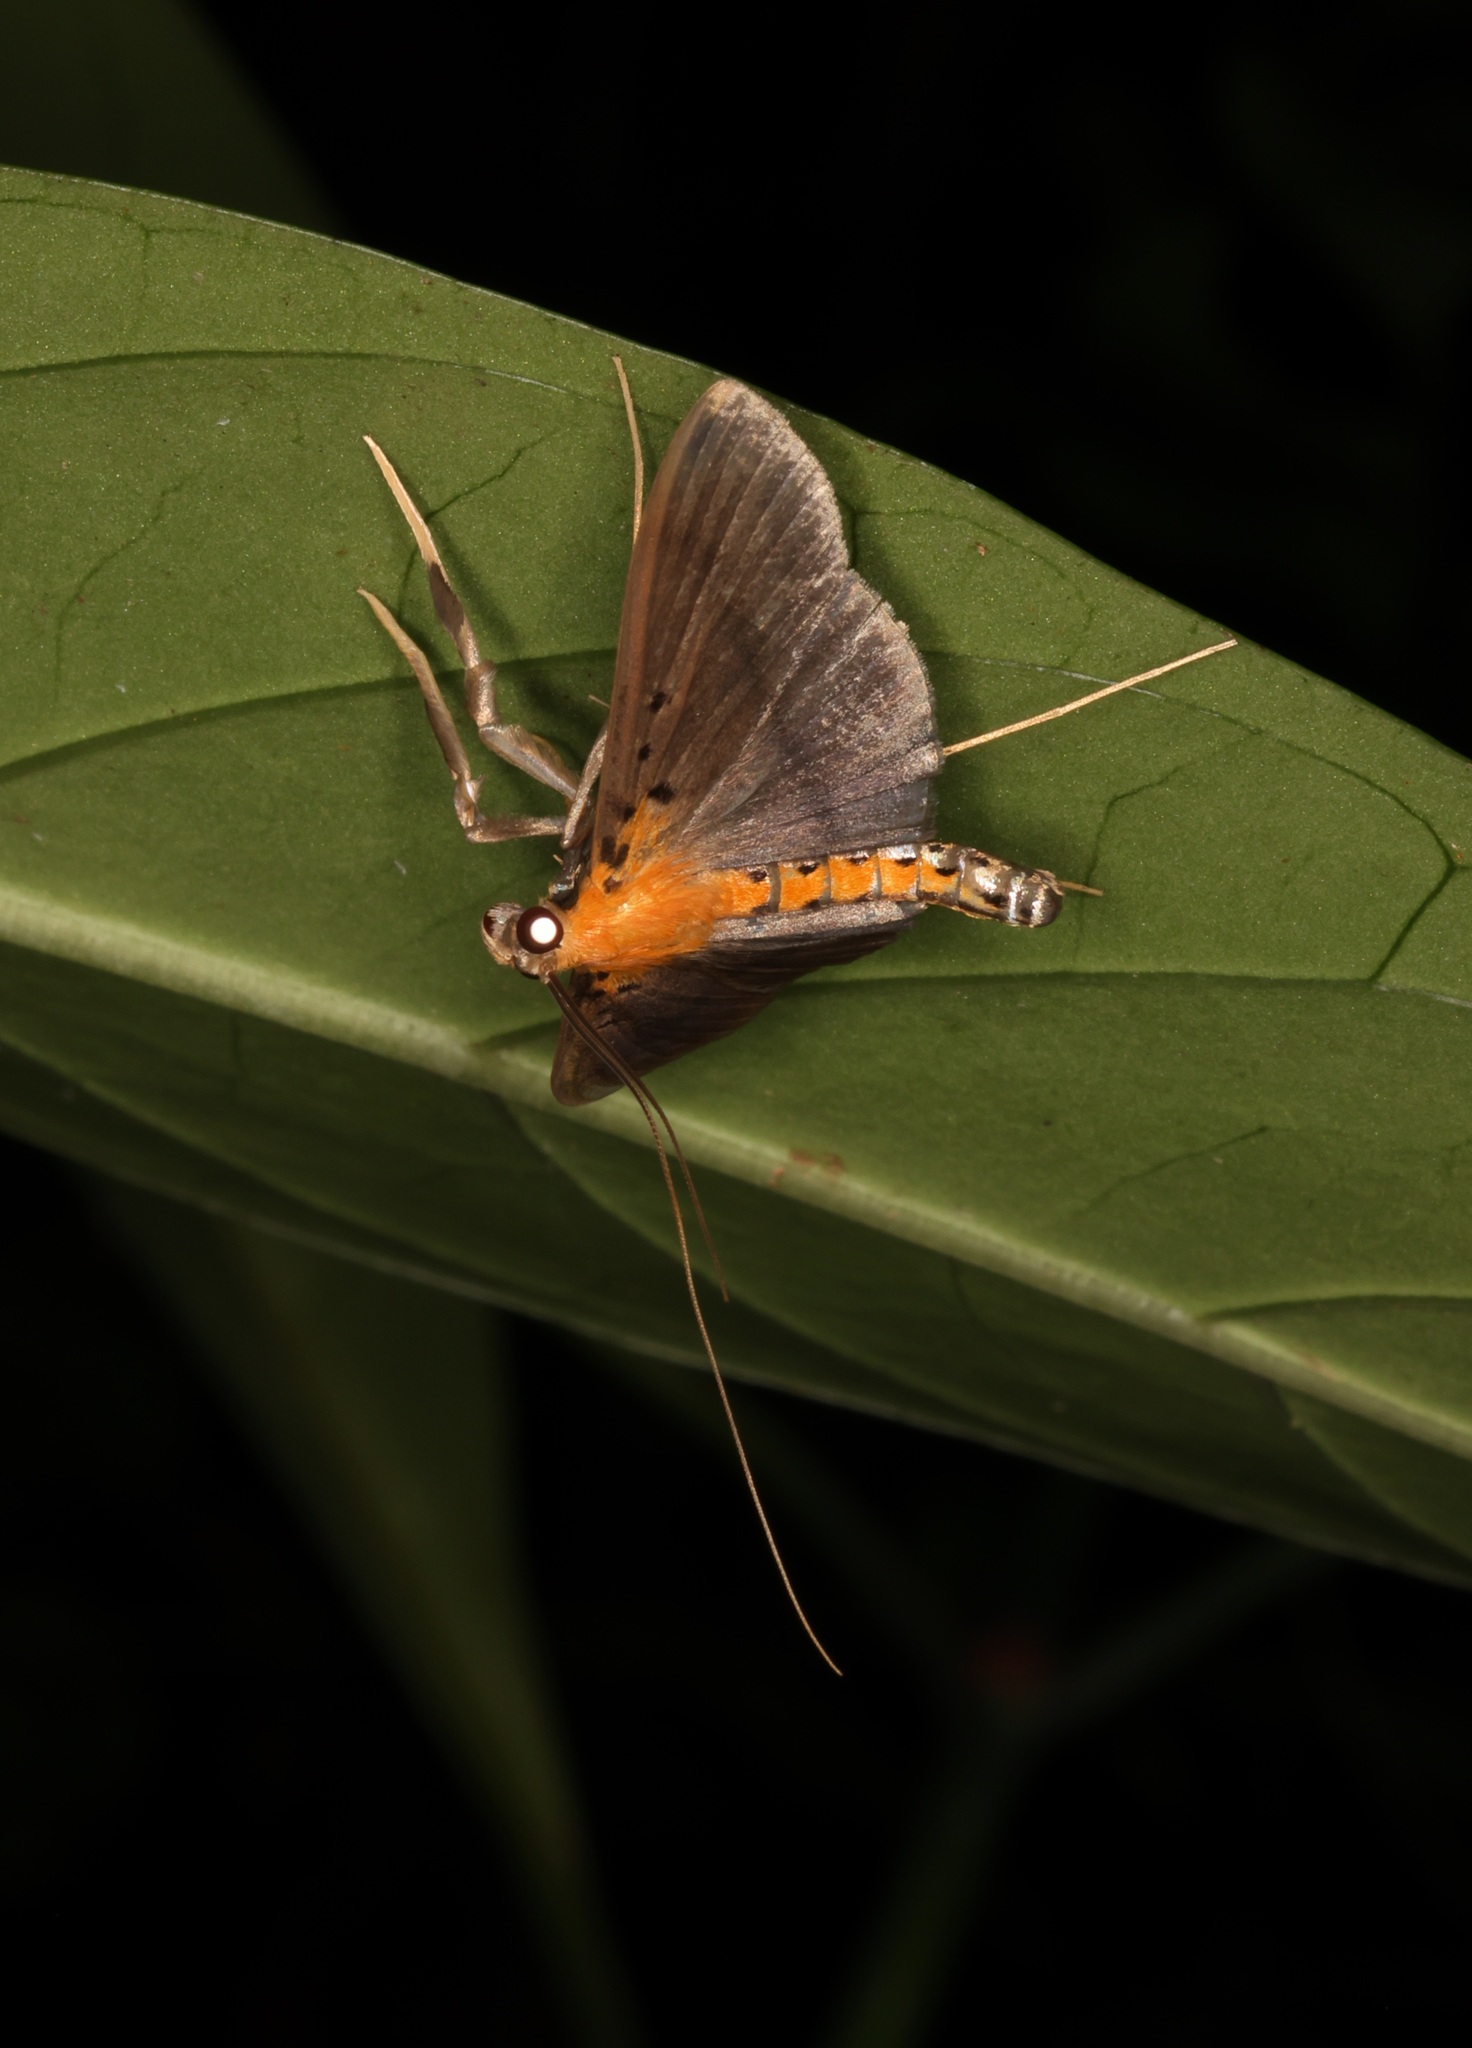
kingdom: Animalia
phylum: Arthropoda
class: Insecta
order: Lepidoptera
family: Crambidae
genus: Filodes
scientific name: Filodes fulvidorsalis
